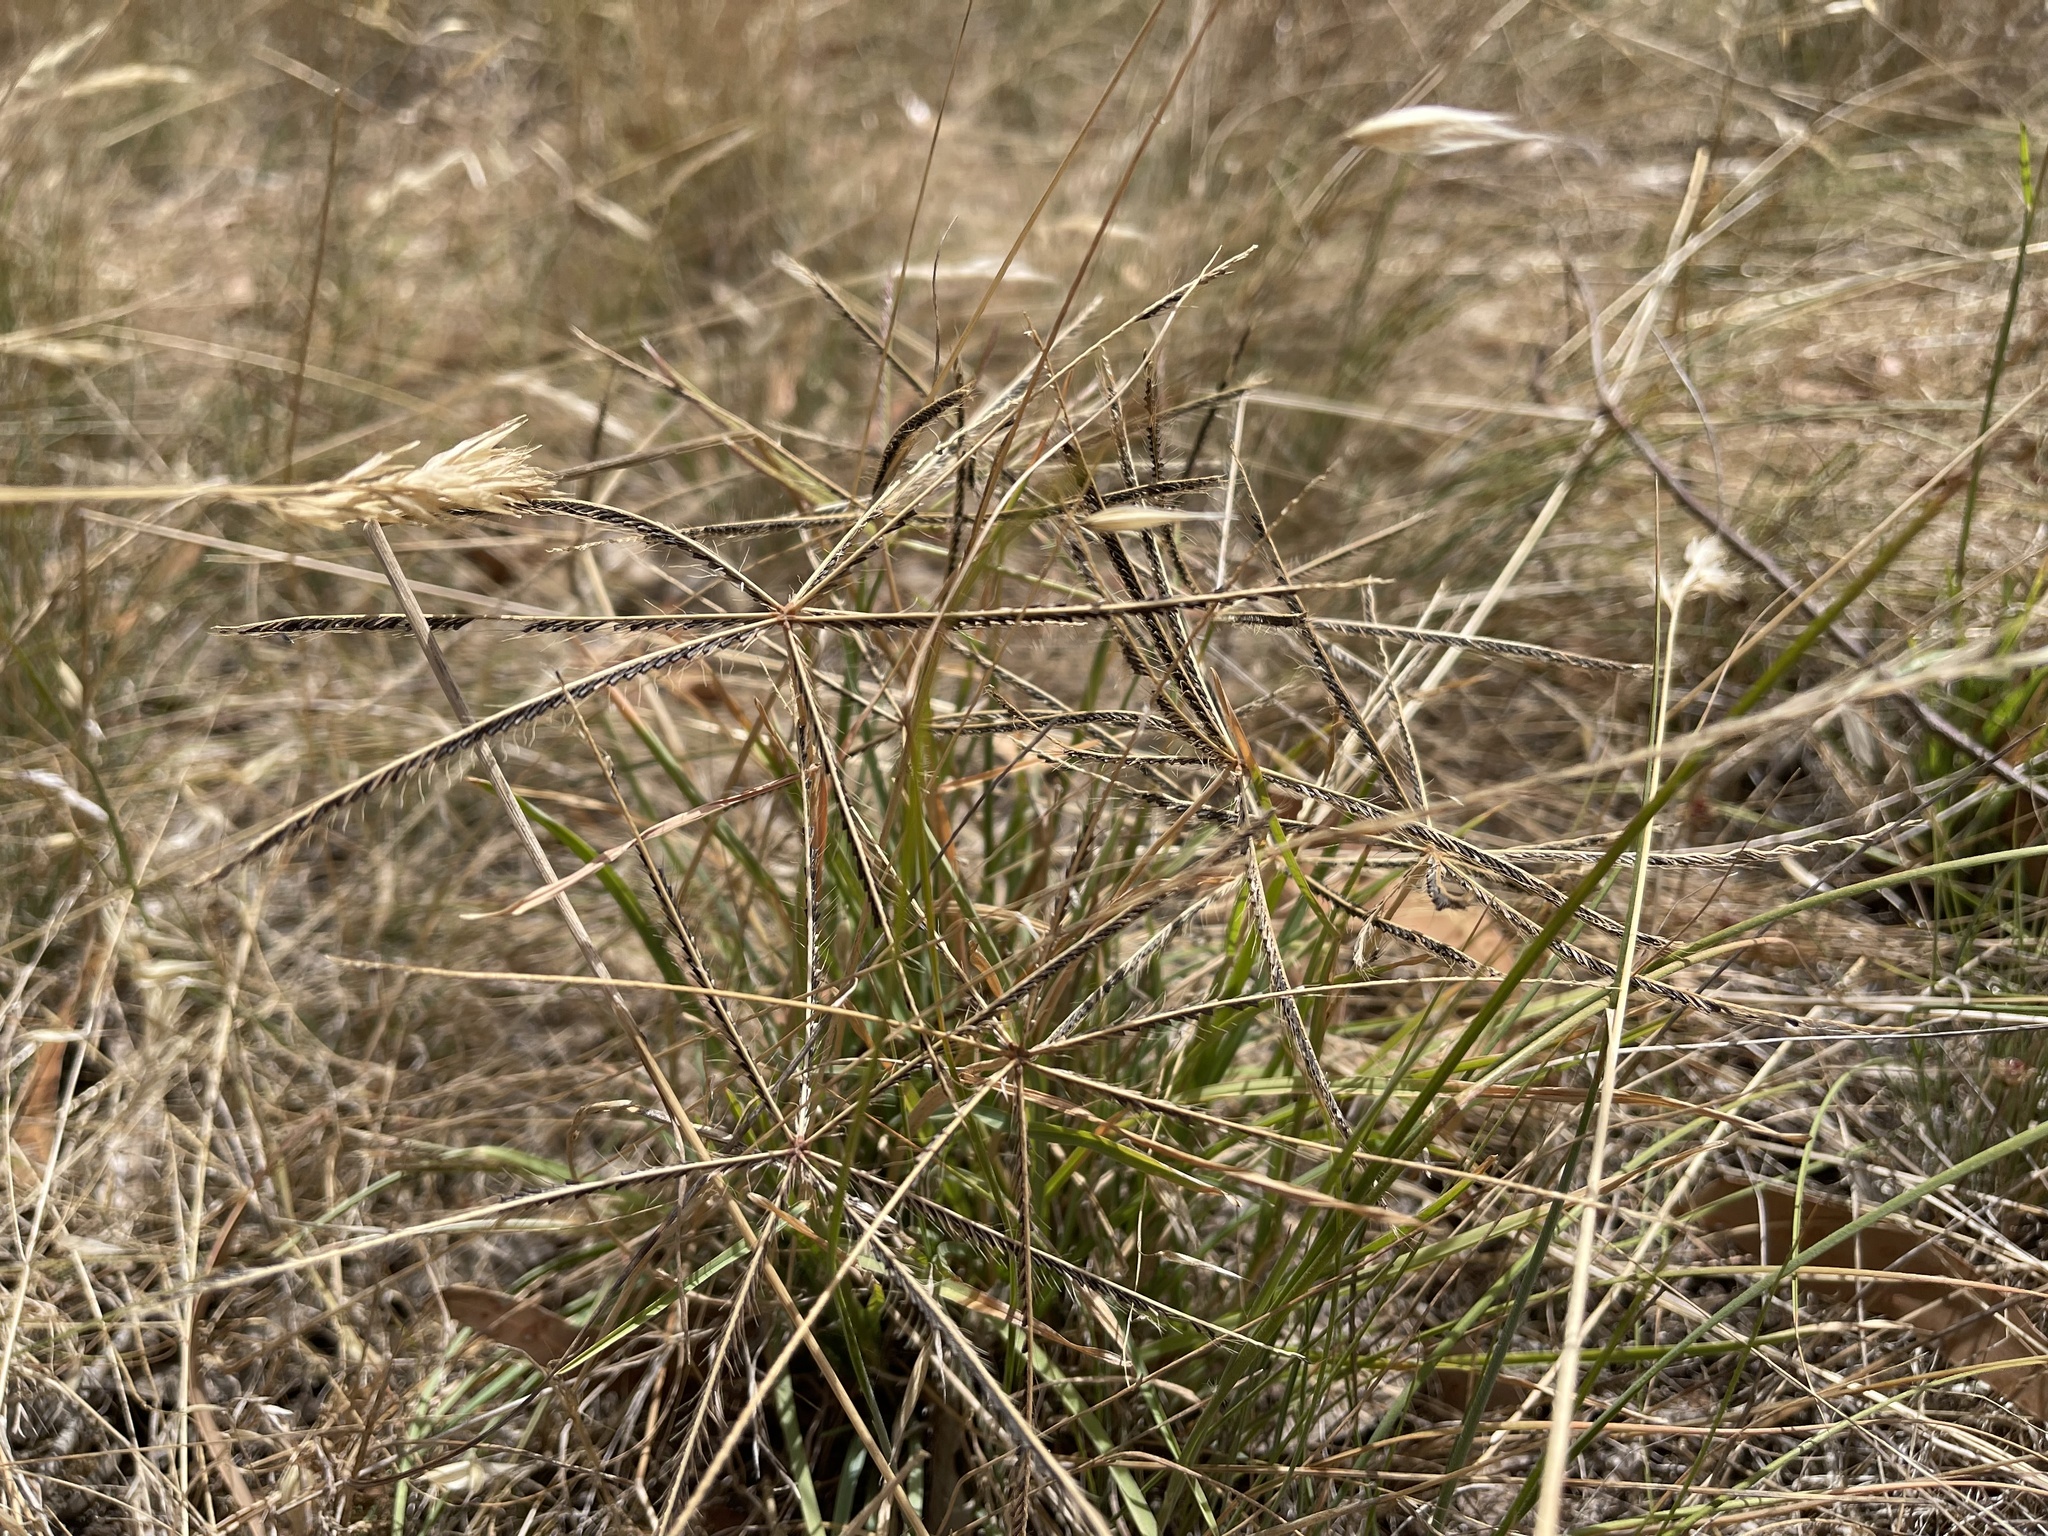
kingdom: Plantae
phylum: Tracheophyta
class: Liliopsida
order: Poales
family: Poaceae
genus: Chloris
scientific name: Chloris truncata
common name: Windmill-grass
